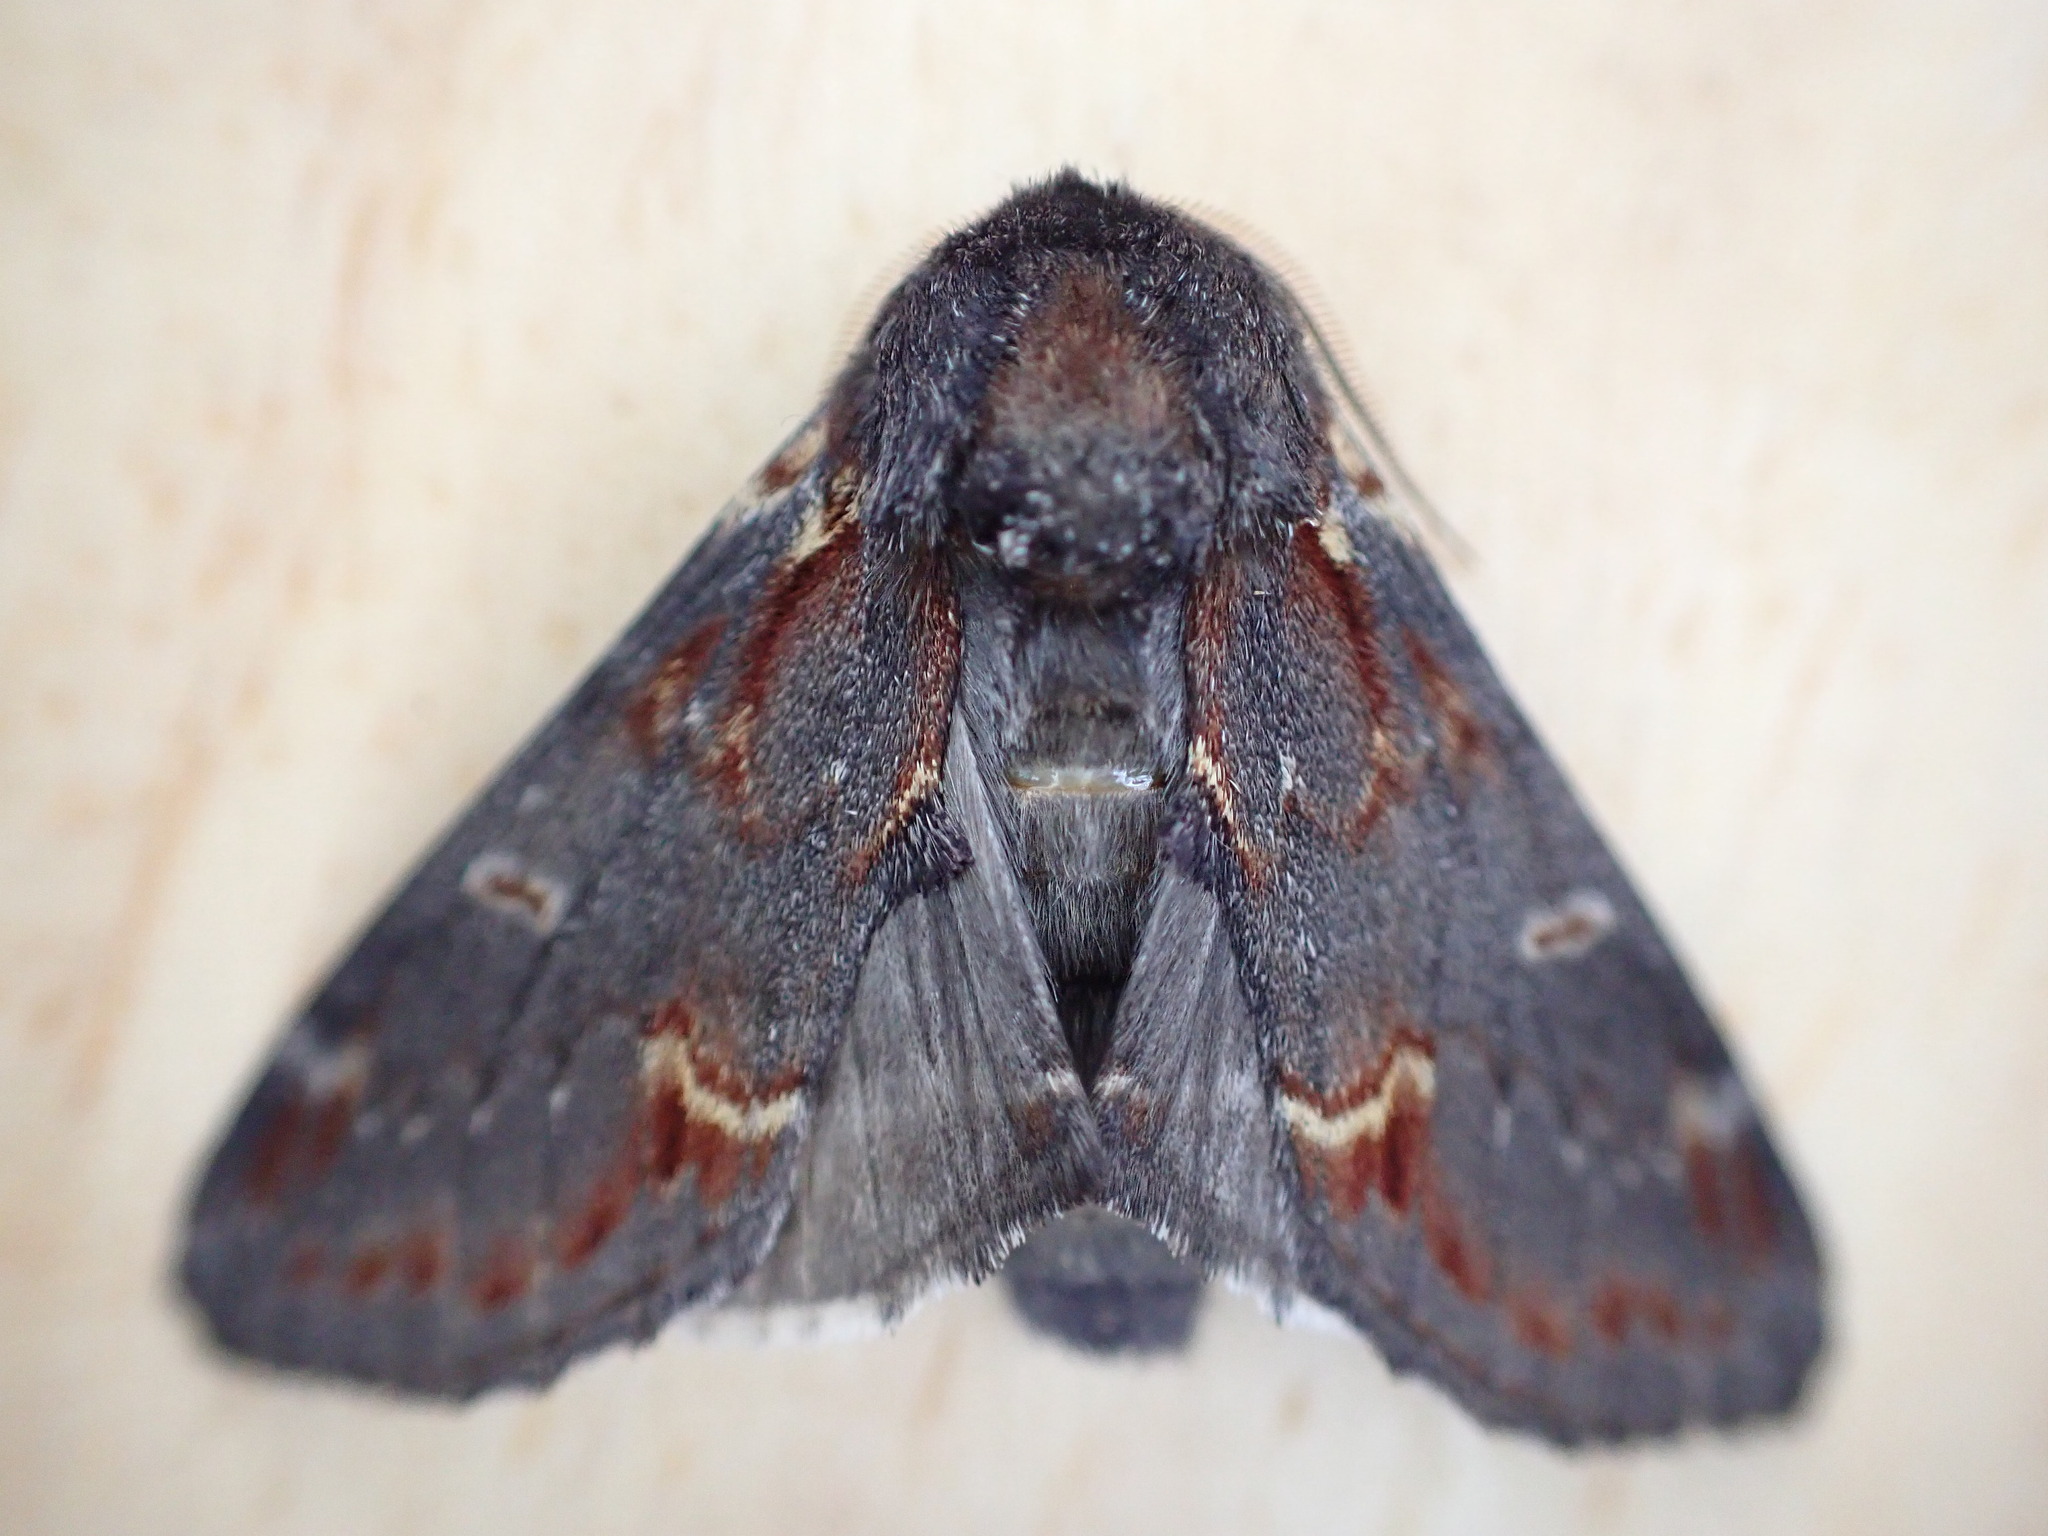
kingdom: Animalia
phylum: Arthropoda
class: Insecta
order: Lepidoptera
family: Notodontidae
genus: Notodonta
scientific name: Notodonta dromedarius
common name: Iron prominent
